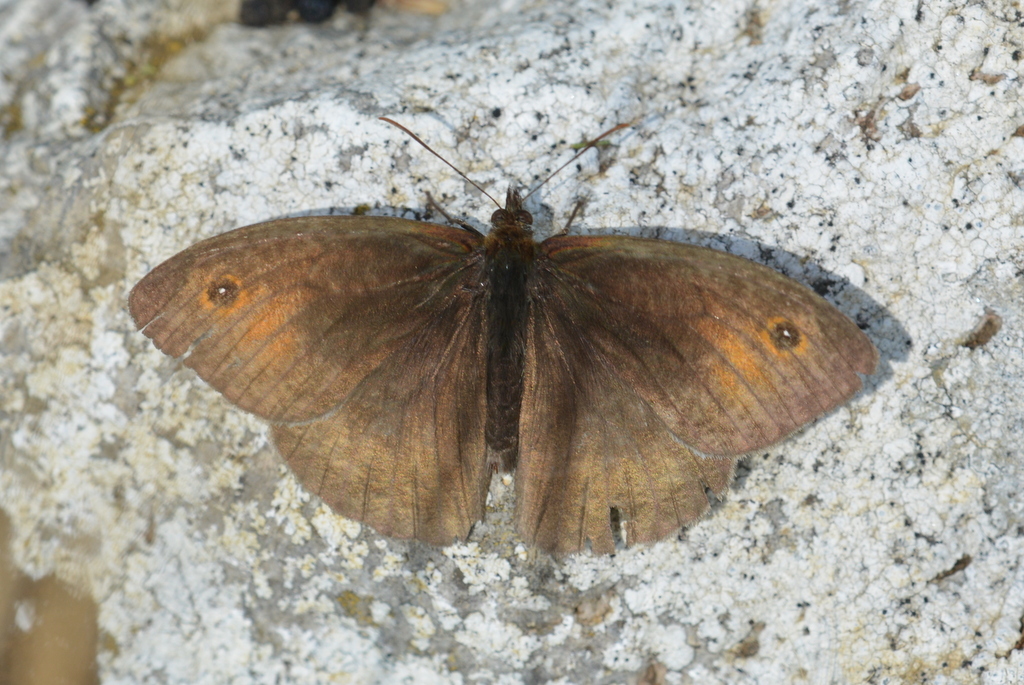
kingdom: Animalia
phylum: Arthropoda
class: Insecta
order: Lepidoptera
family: Nymphalidae
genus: Maniola
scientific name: Maniola jurtina
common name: Meadow brown
